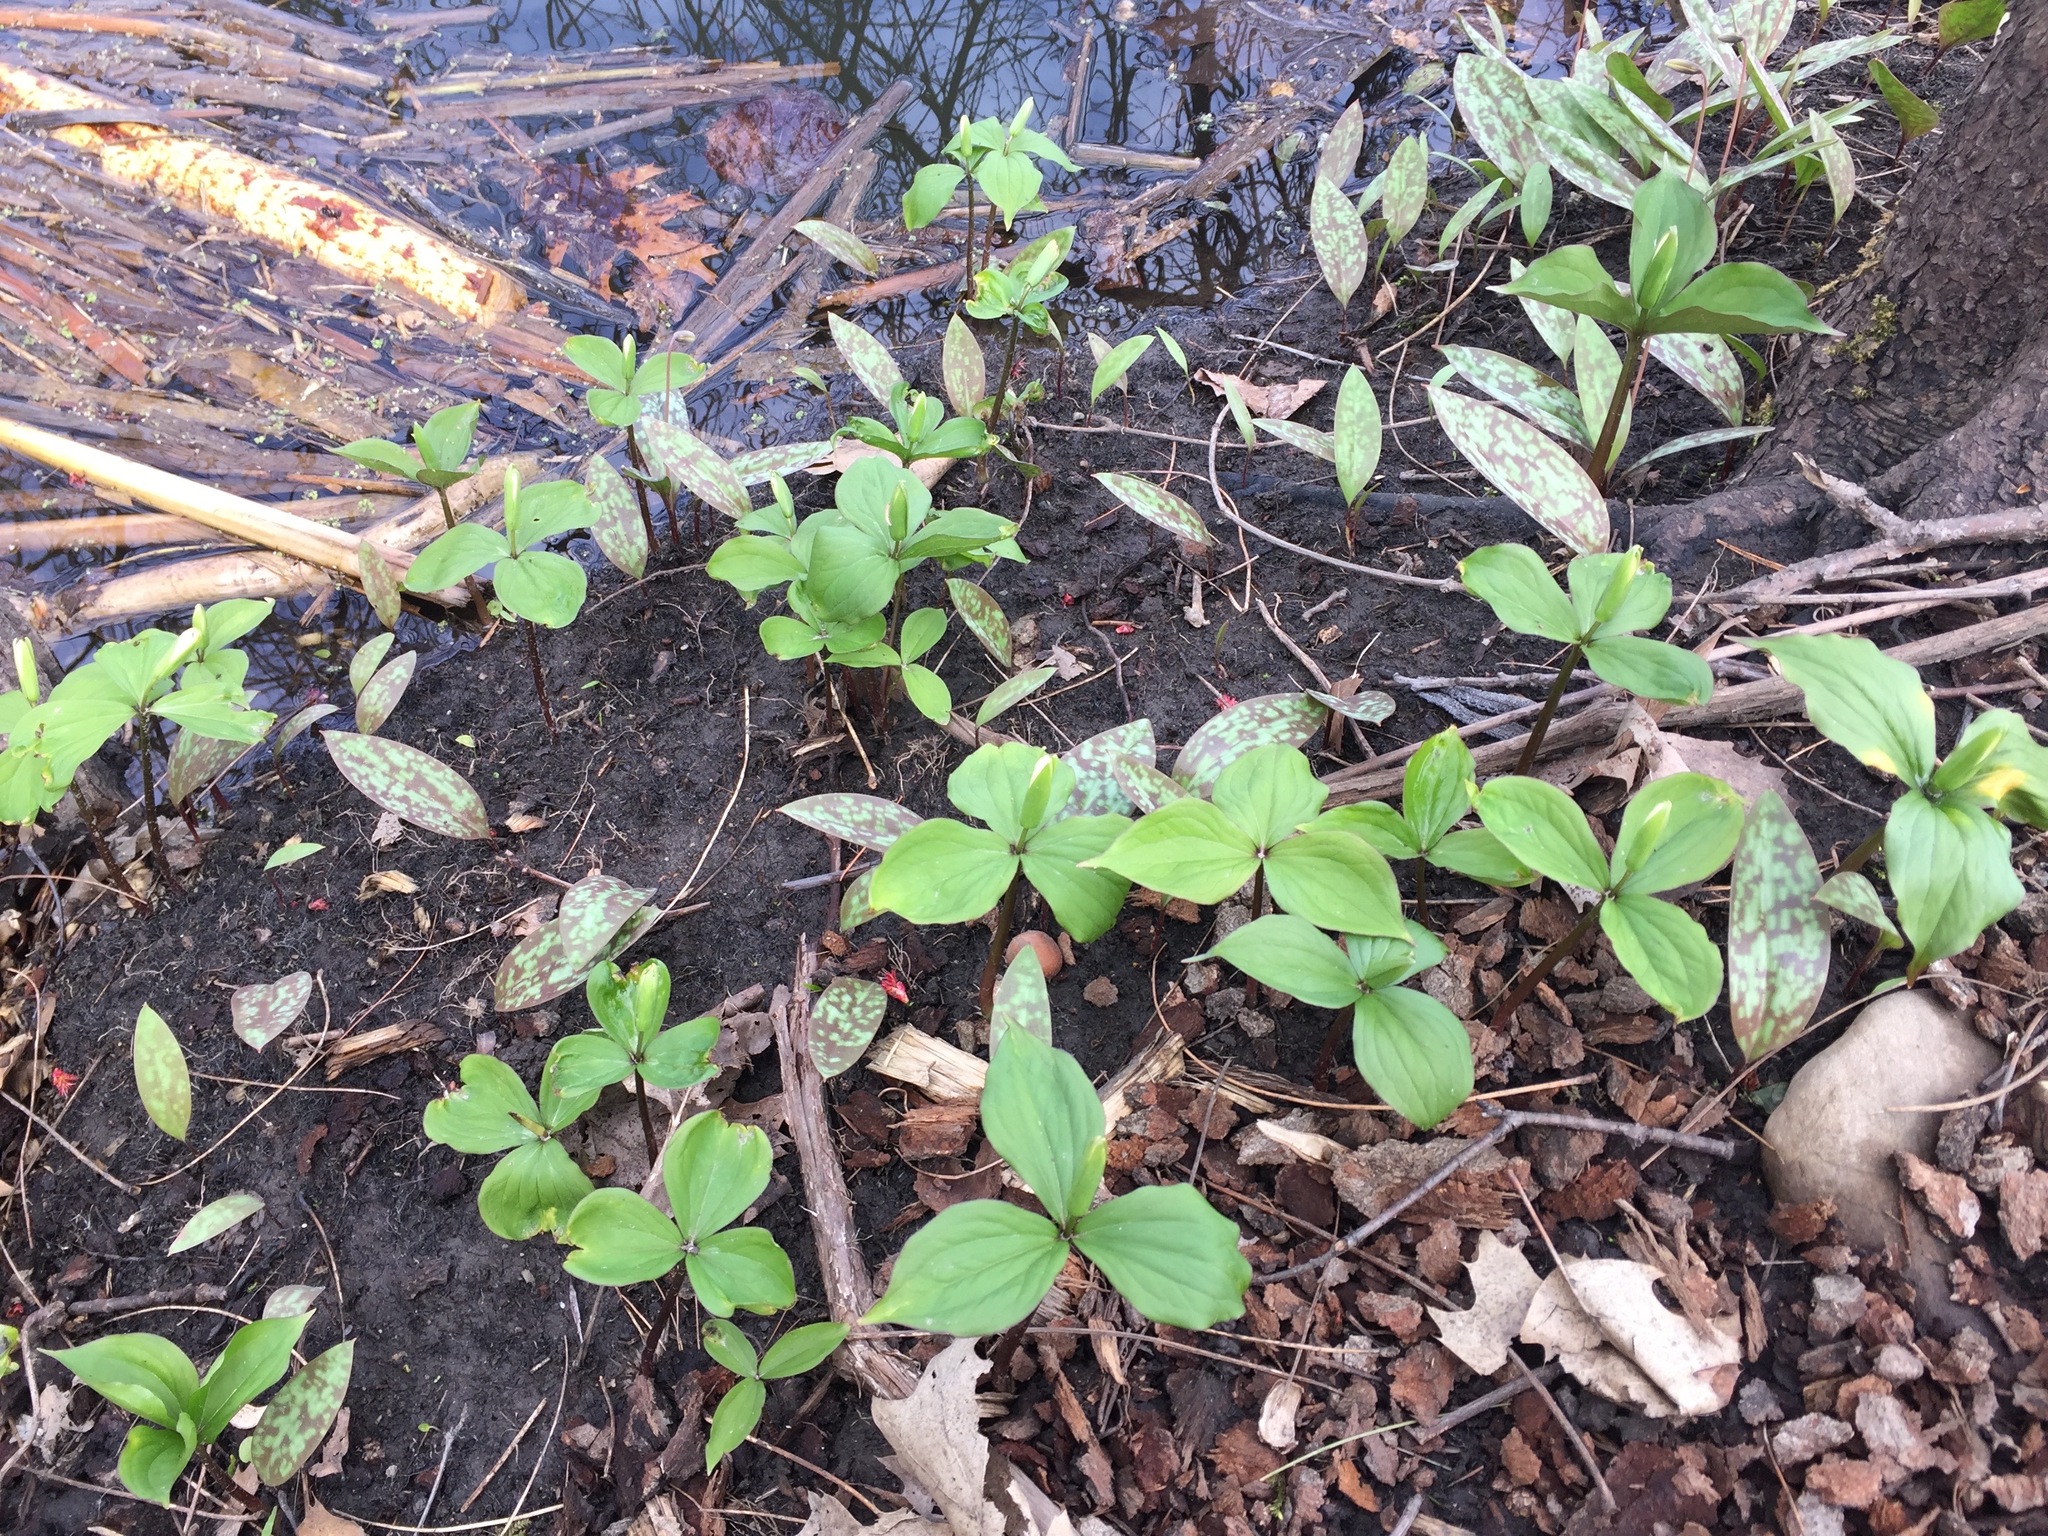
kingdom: Plantae
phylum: Tracheophyta
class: Liliopsida
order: Liliales
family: Melanthiaceae
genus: Trillium
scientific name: Trillium grandiflorum
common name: Great white trillium
